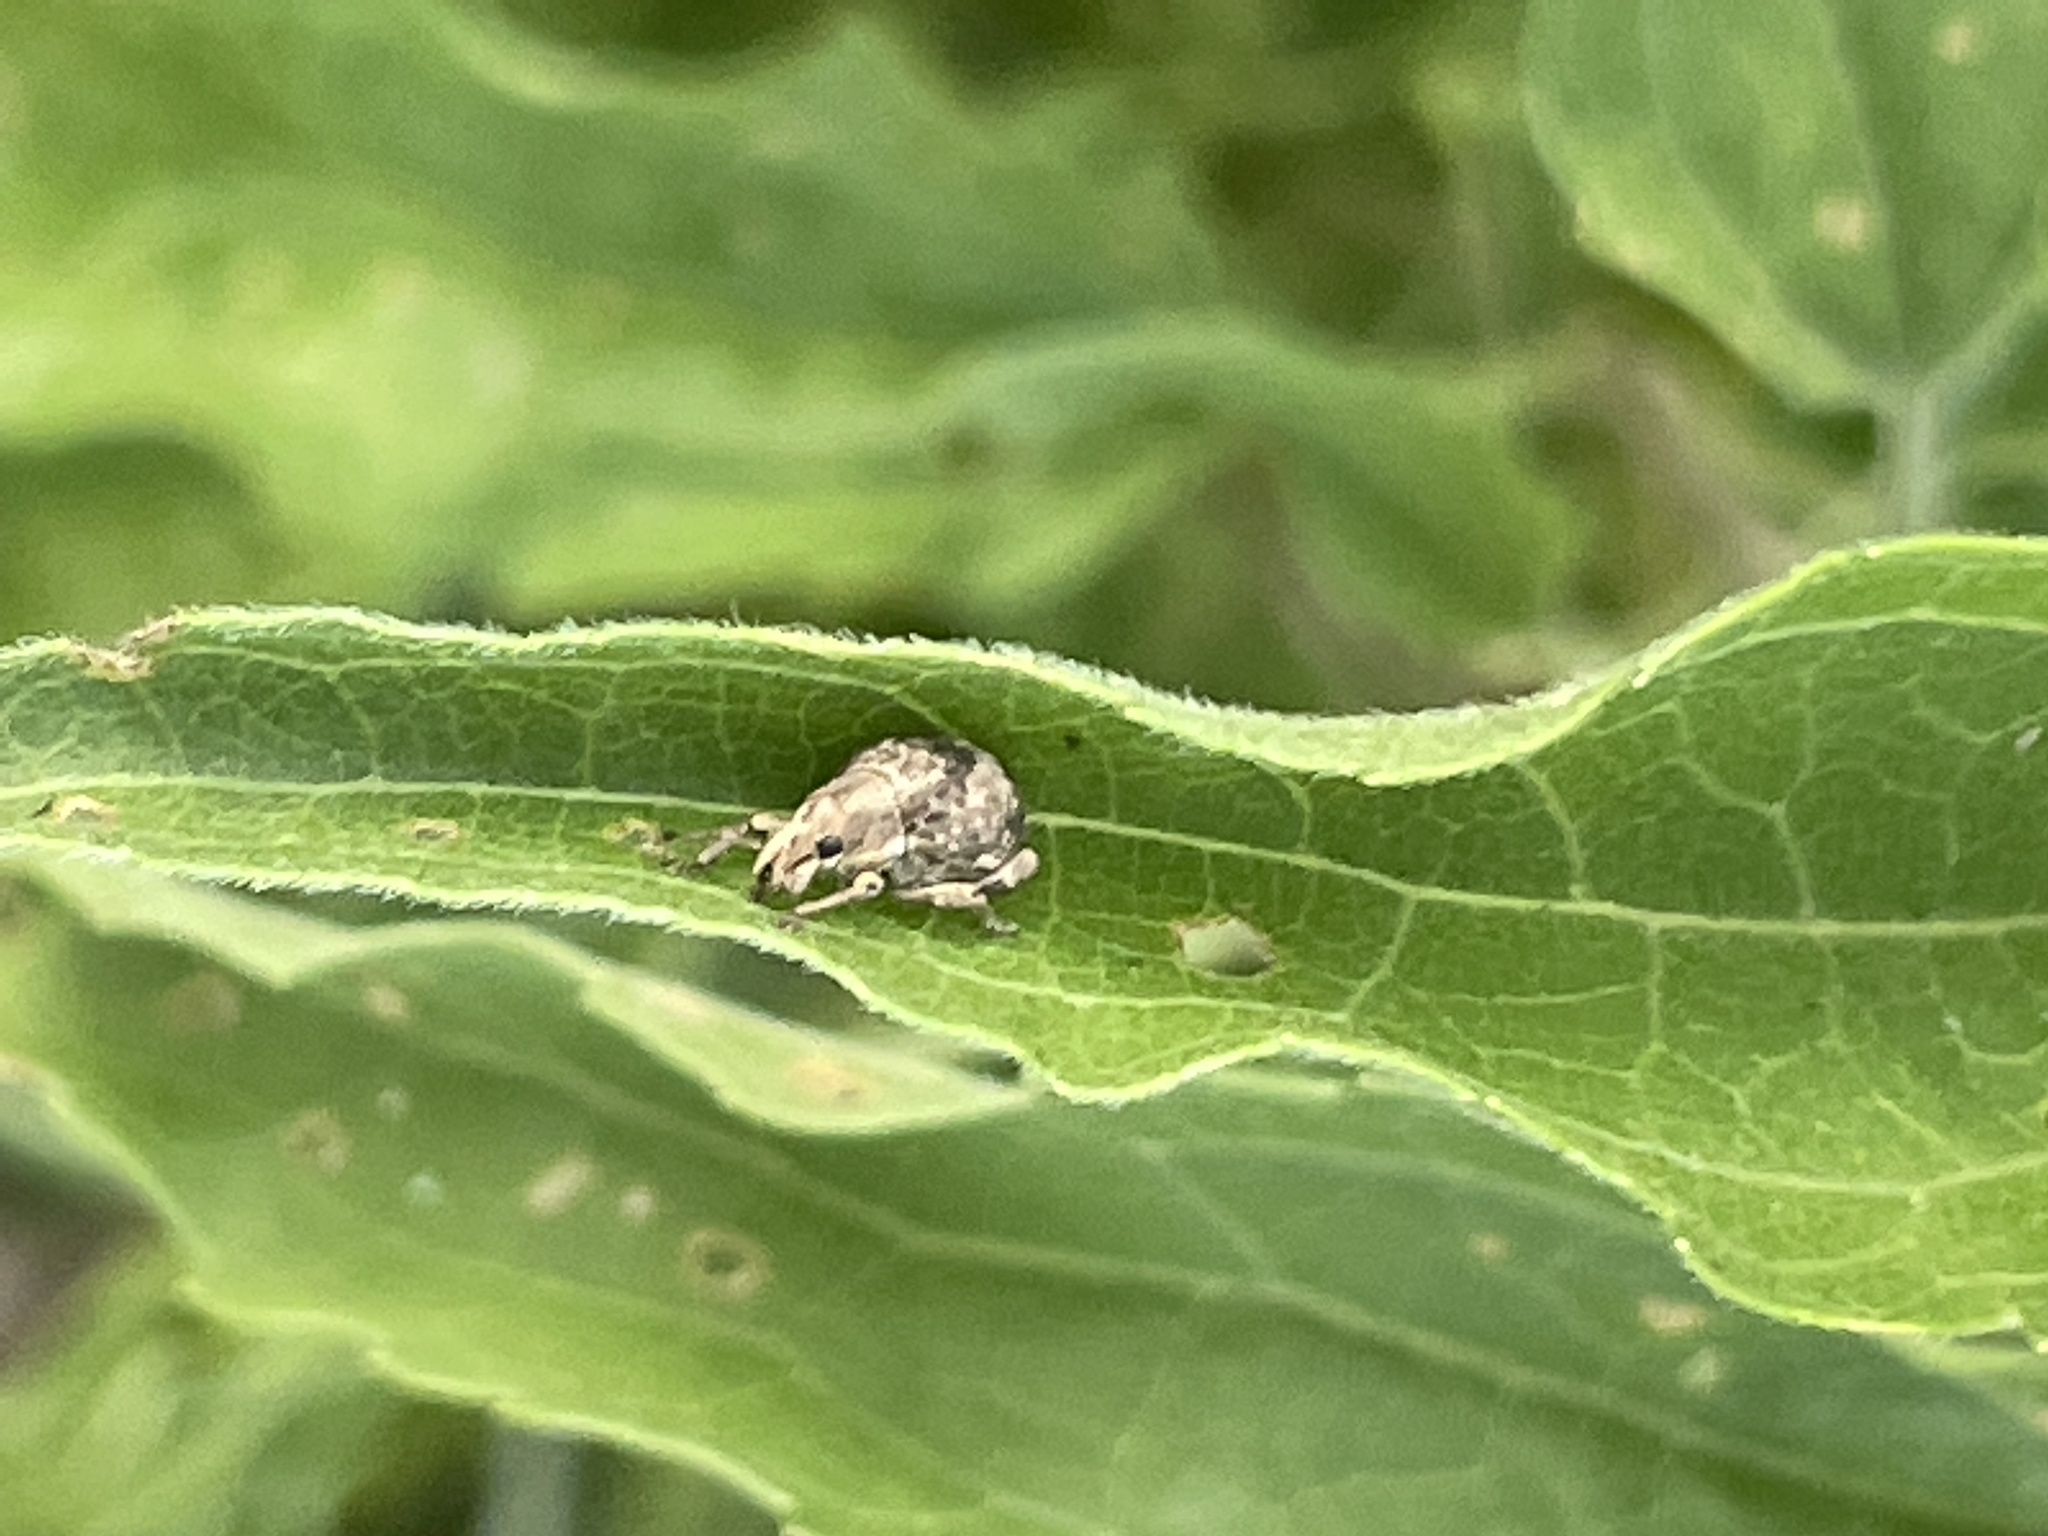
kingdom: Animalia
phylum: Arthropoda
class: Insecta
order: Coleoptera
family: Curculionidae
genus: Pseudocneorhinus
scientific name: Pseudocneorhinus bifasciatus
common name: Two-banded japanese weevil
